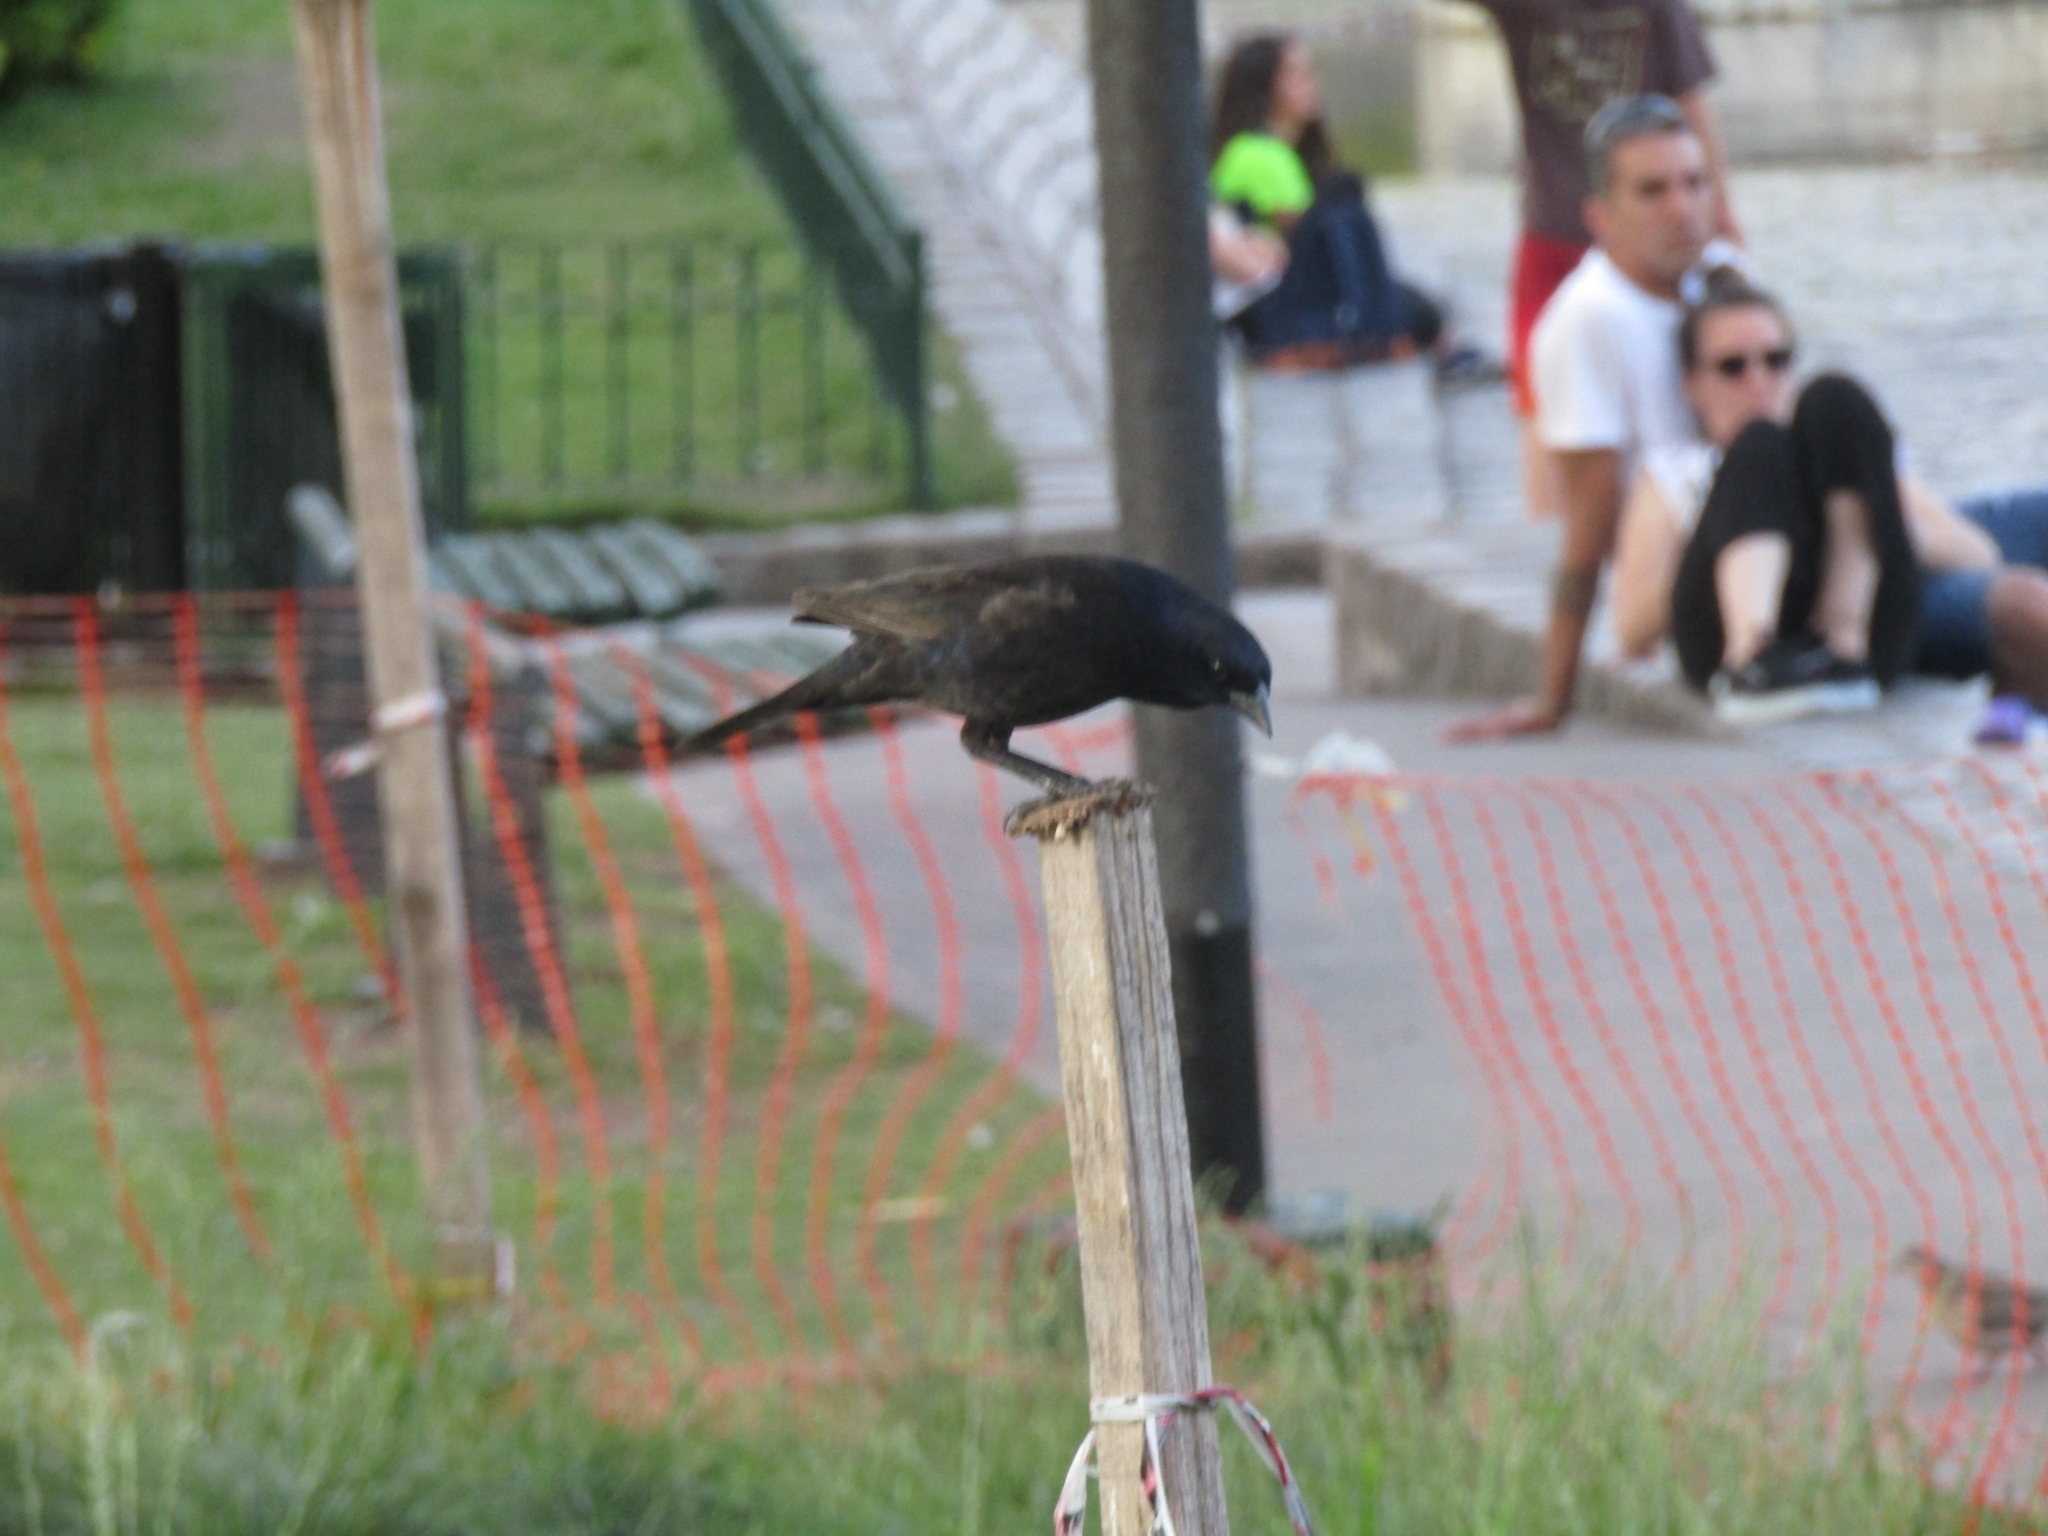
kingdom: Animalia
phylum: Chordata
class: Aves
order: Passeriformes
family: Icteridae
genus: Molothrus
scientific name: Molothrus bonariensis
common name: Shiny cowbird
